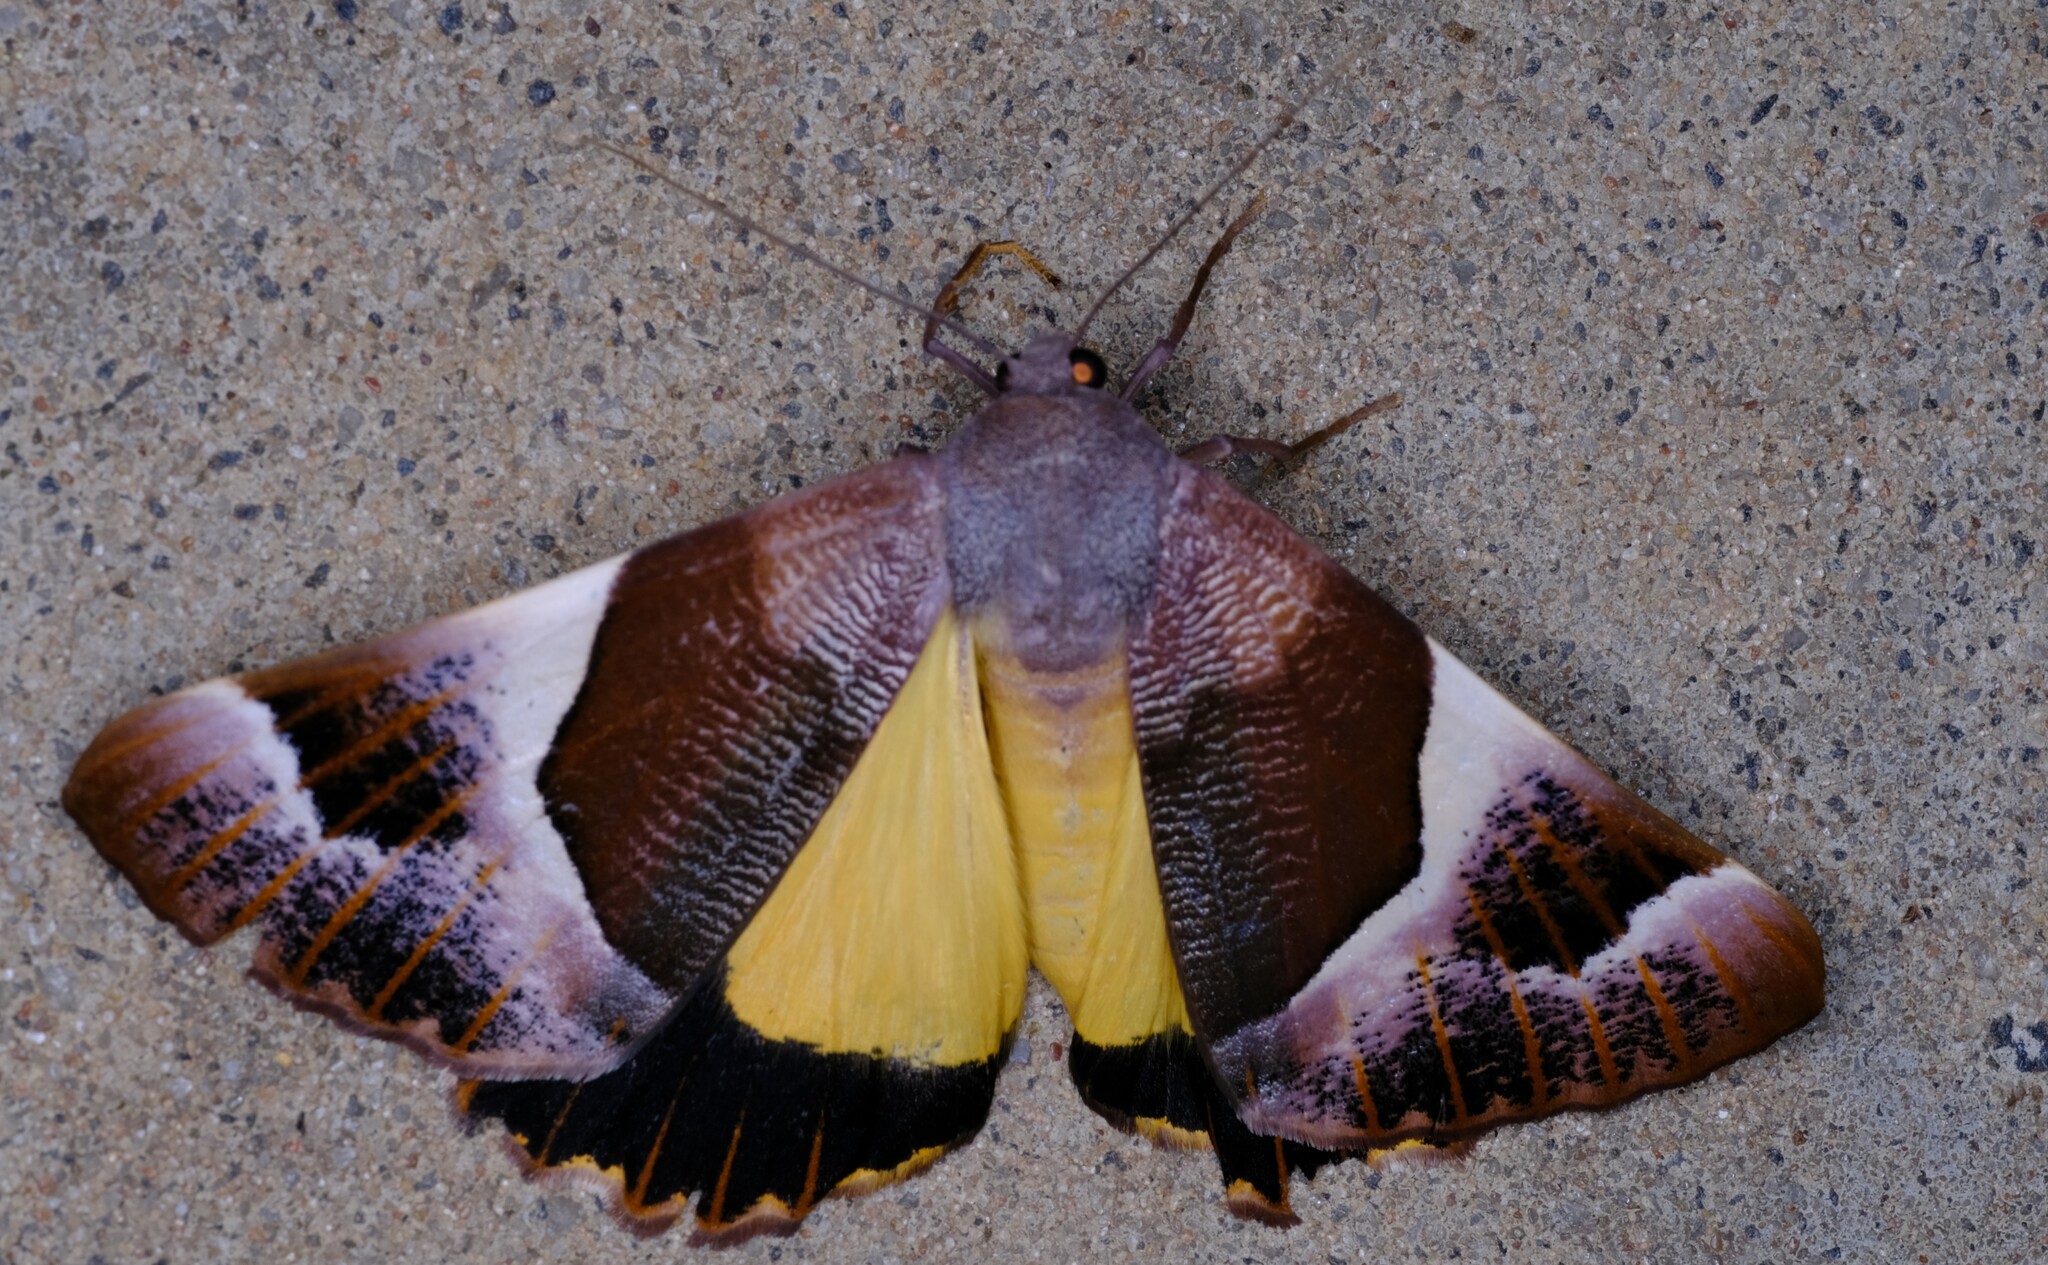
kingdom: Animalia
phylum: Arthropoda
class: Insecta
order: Lepidoptera
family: Geometridae
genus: Niceteria
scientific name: Niceteria macrocosma
